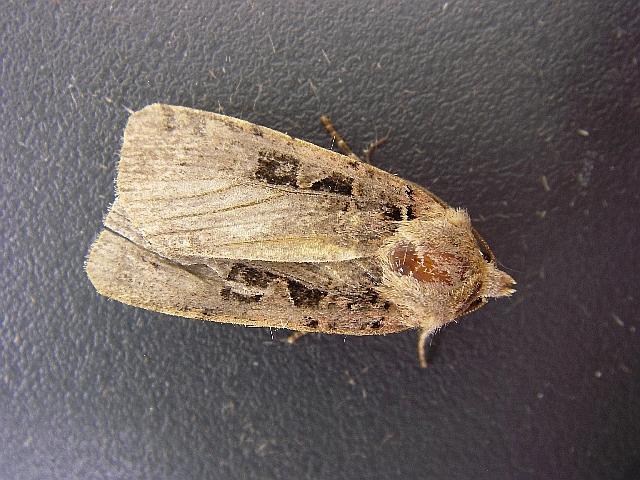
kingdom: Animalia
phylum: Arthropoda
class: Insecta
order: Lepidoptera
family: Noctuidae
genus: Xestia
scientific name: Xestia triangulum
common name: Double square-spot
